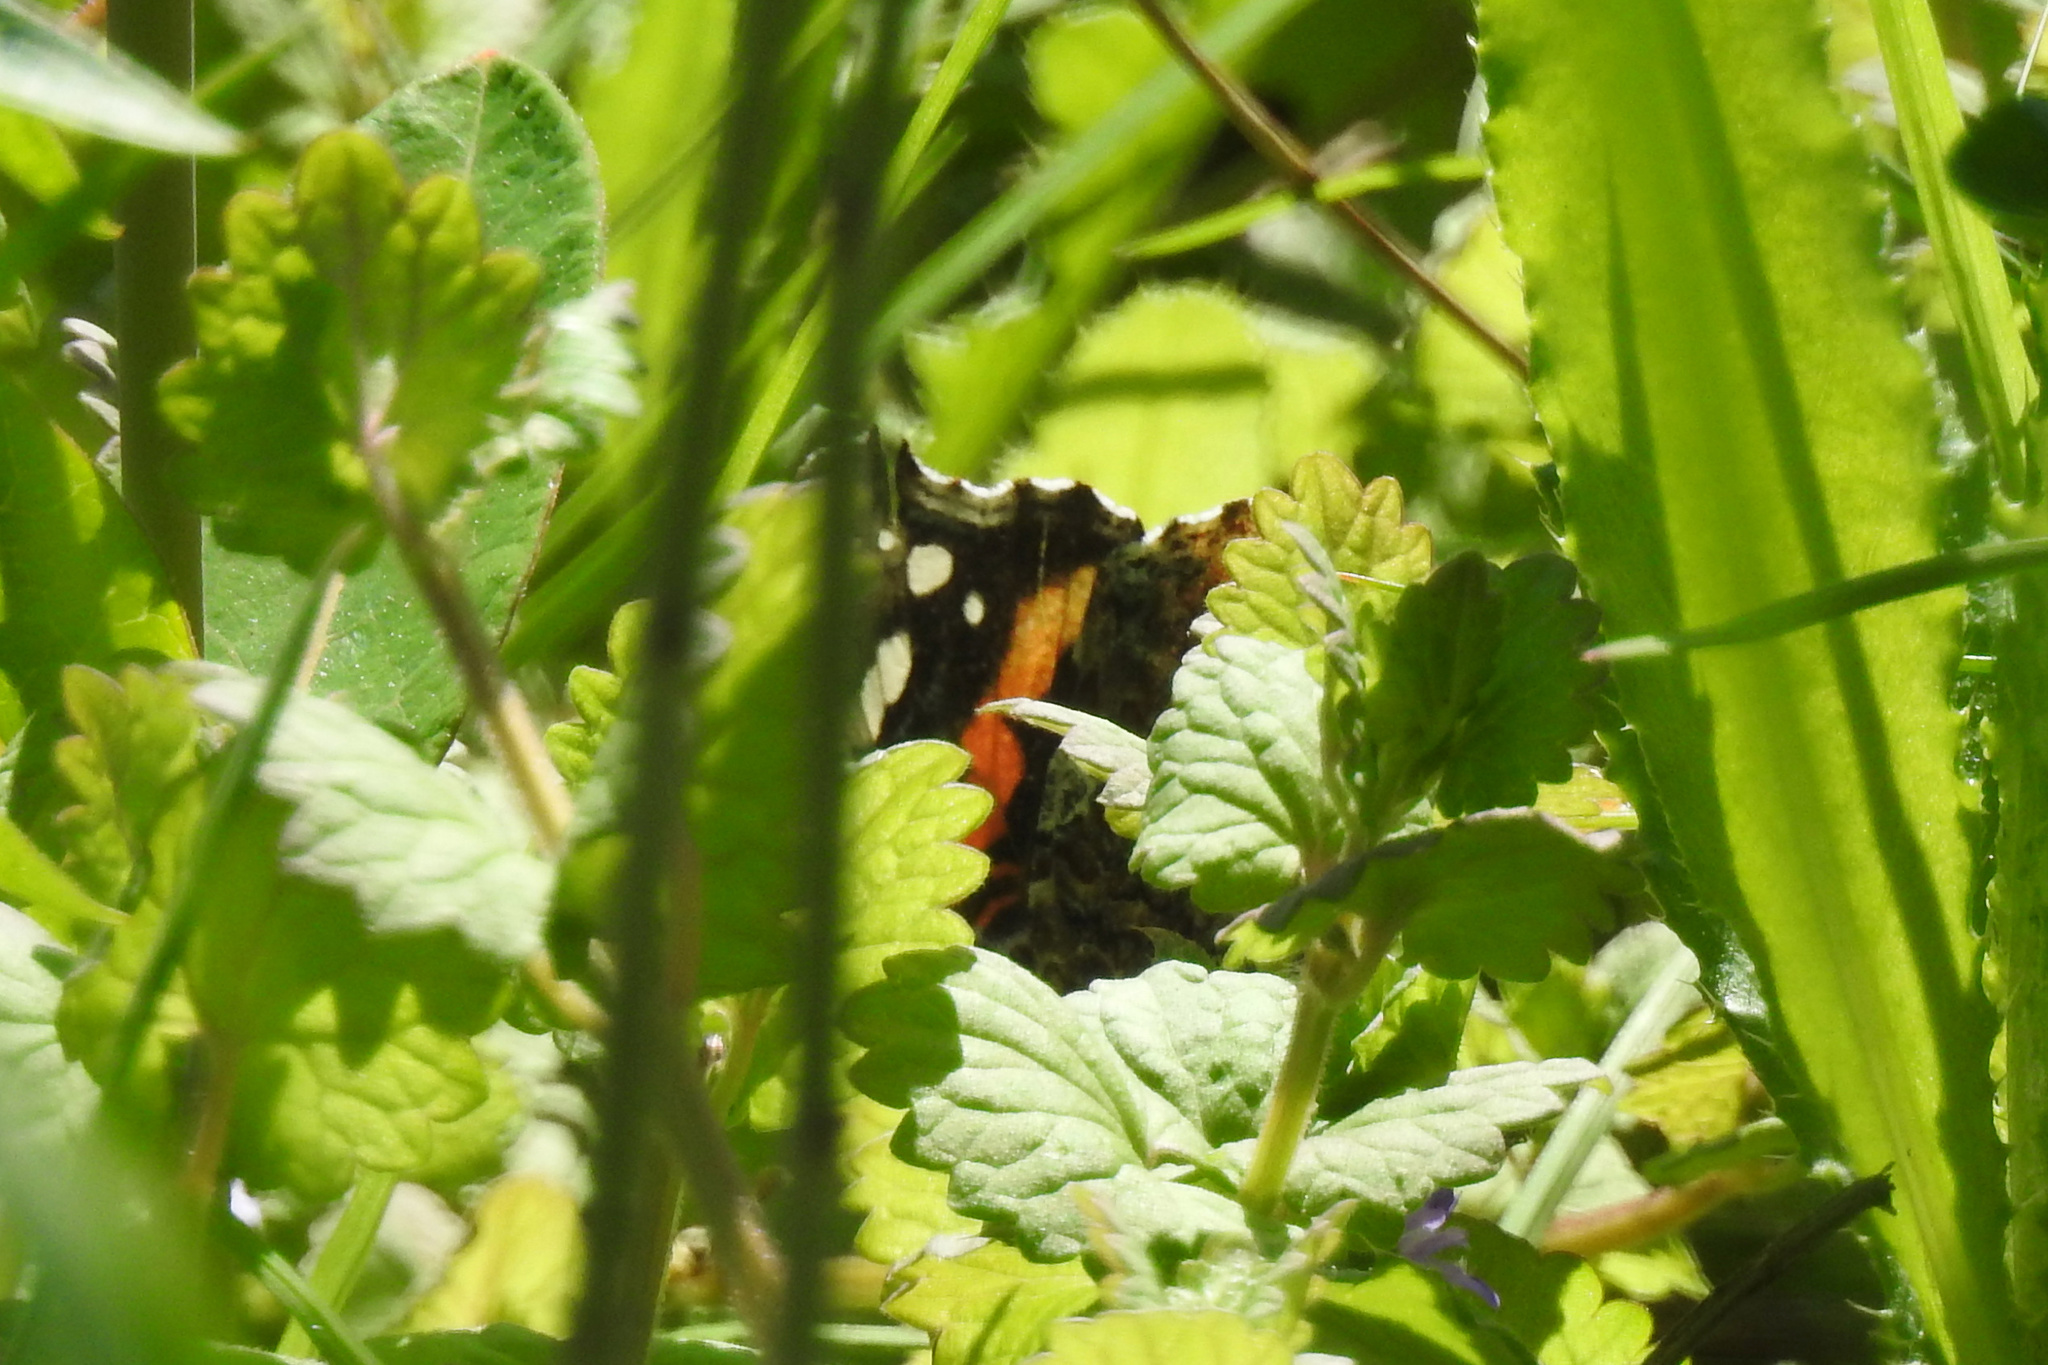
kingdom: Animalia
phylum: Arthropoda
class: Insecta
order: Lepidoptera
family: Nymphalidae
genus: Vanessa
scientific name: Vanessa atalanta
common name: Red admiral
